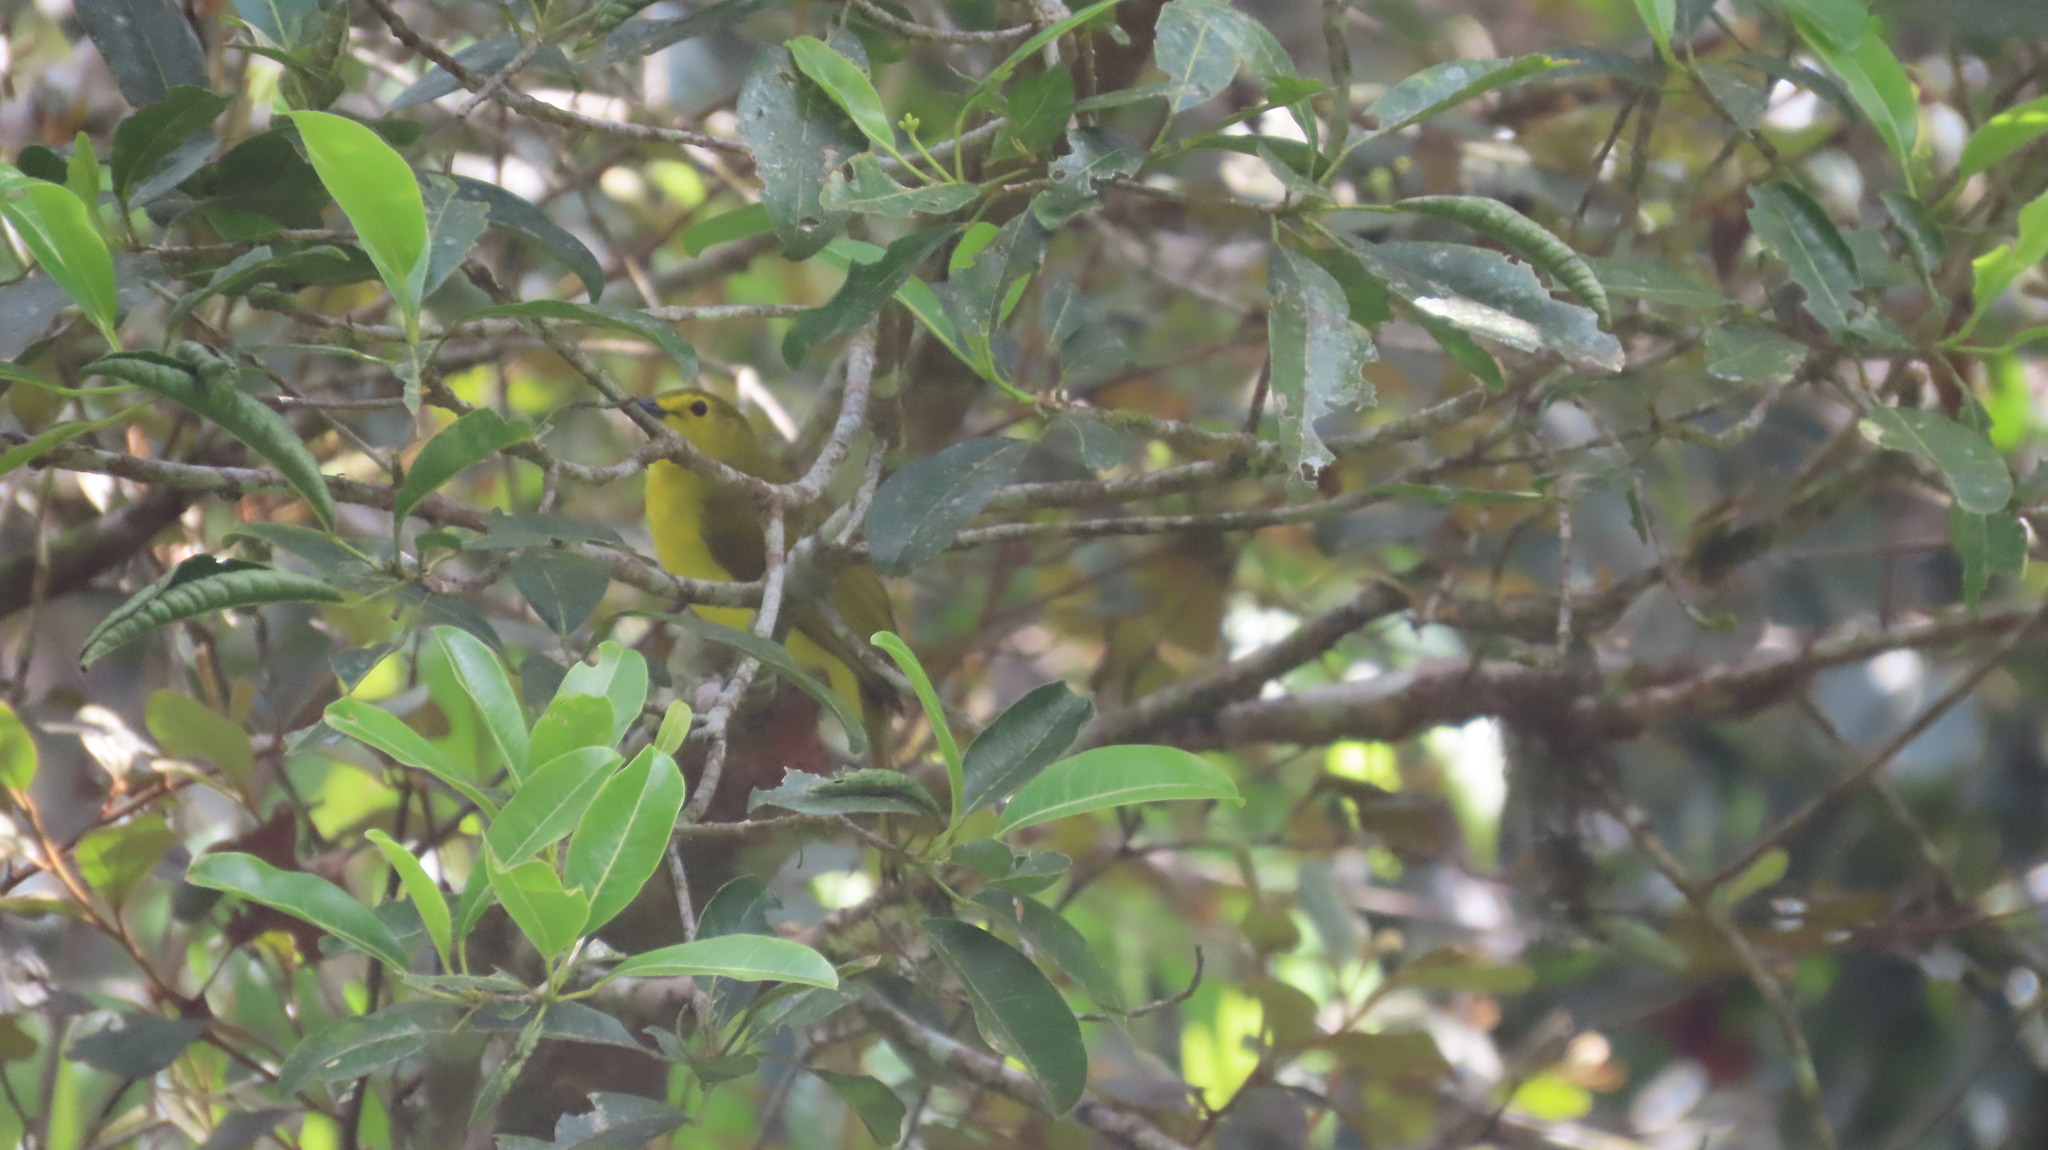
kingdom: Animalia
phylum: Chordata
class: Aves
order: Passeriformes
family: Pycnonotidae
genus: Acritillas
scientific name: Acritillas indica
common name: Yellow-browed bulbul
